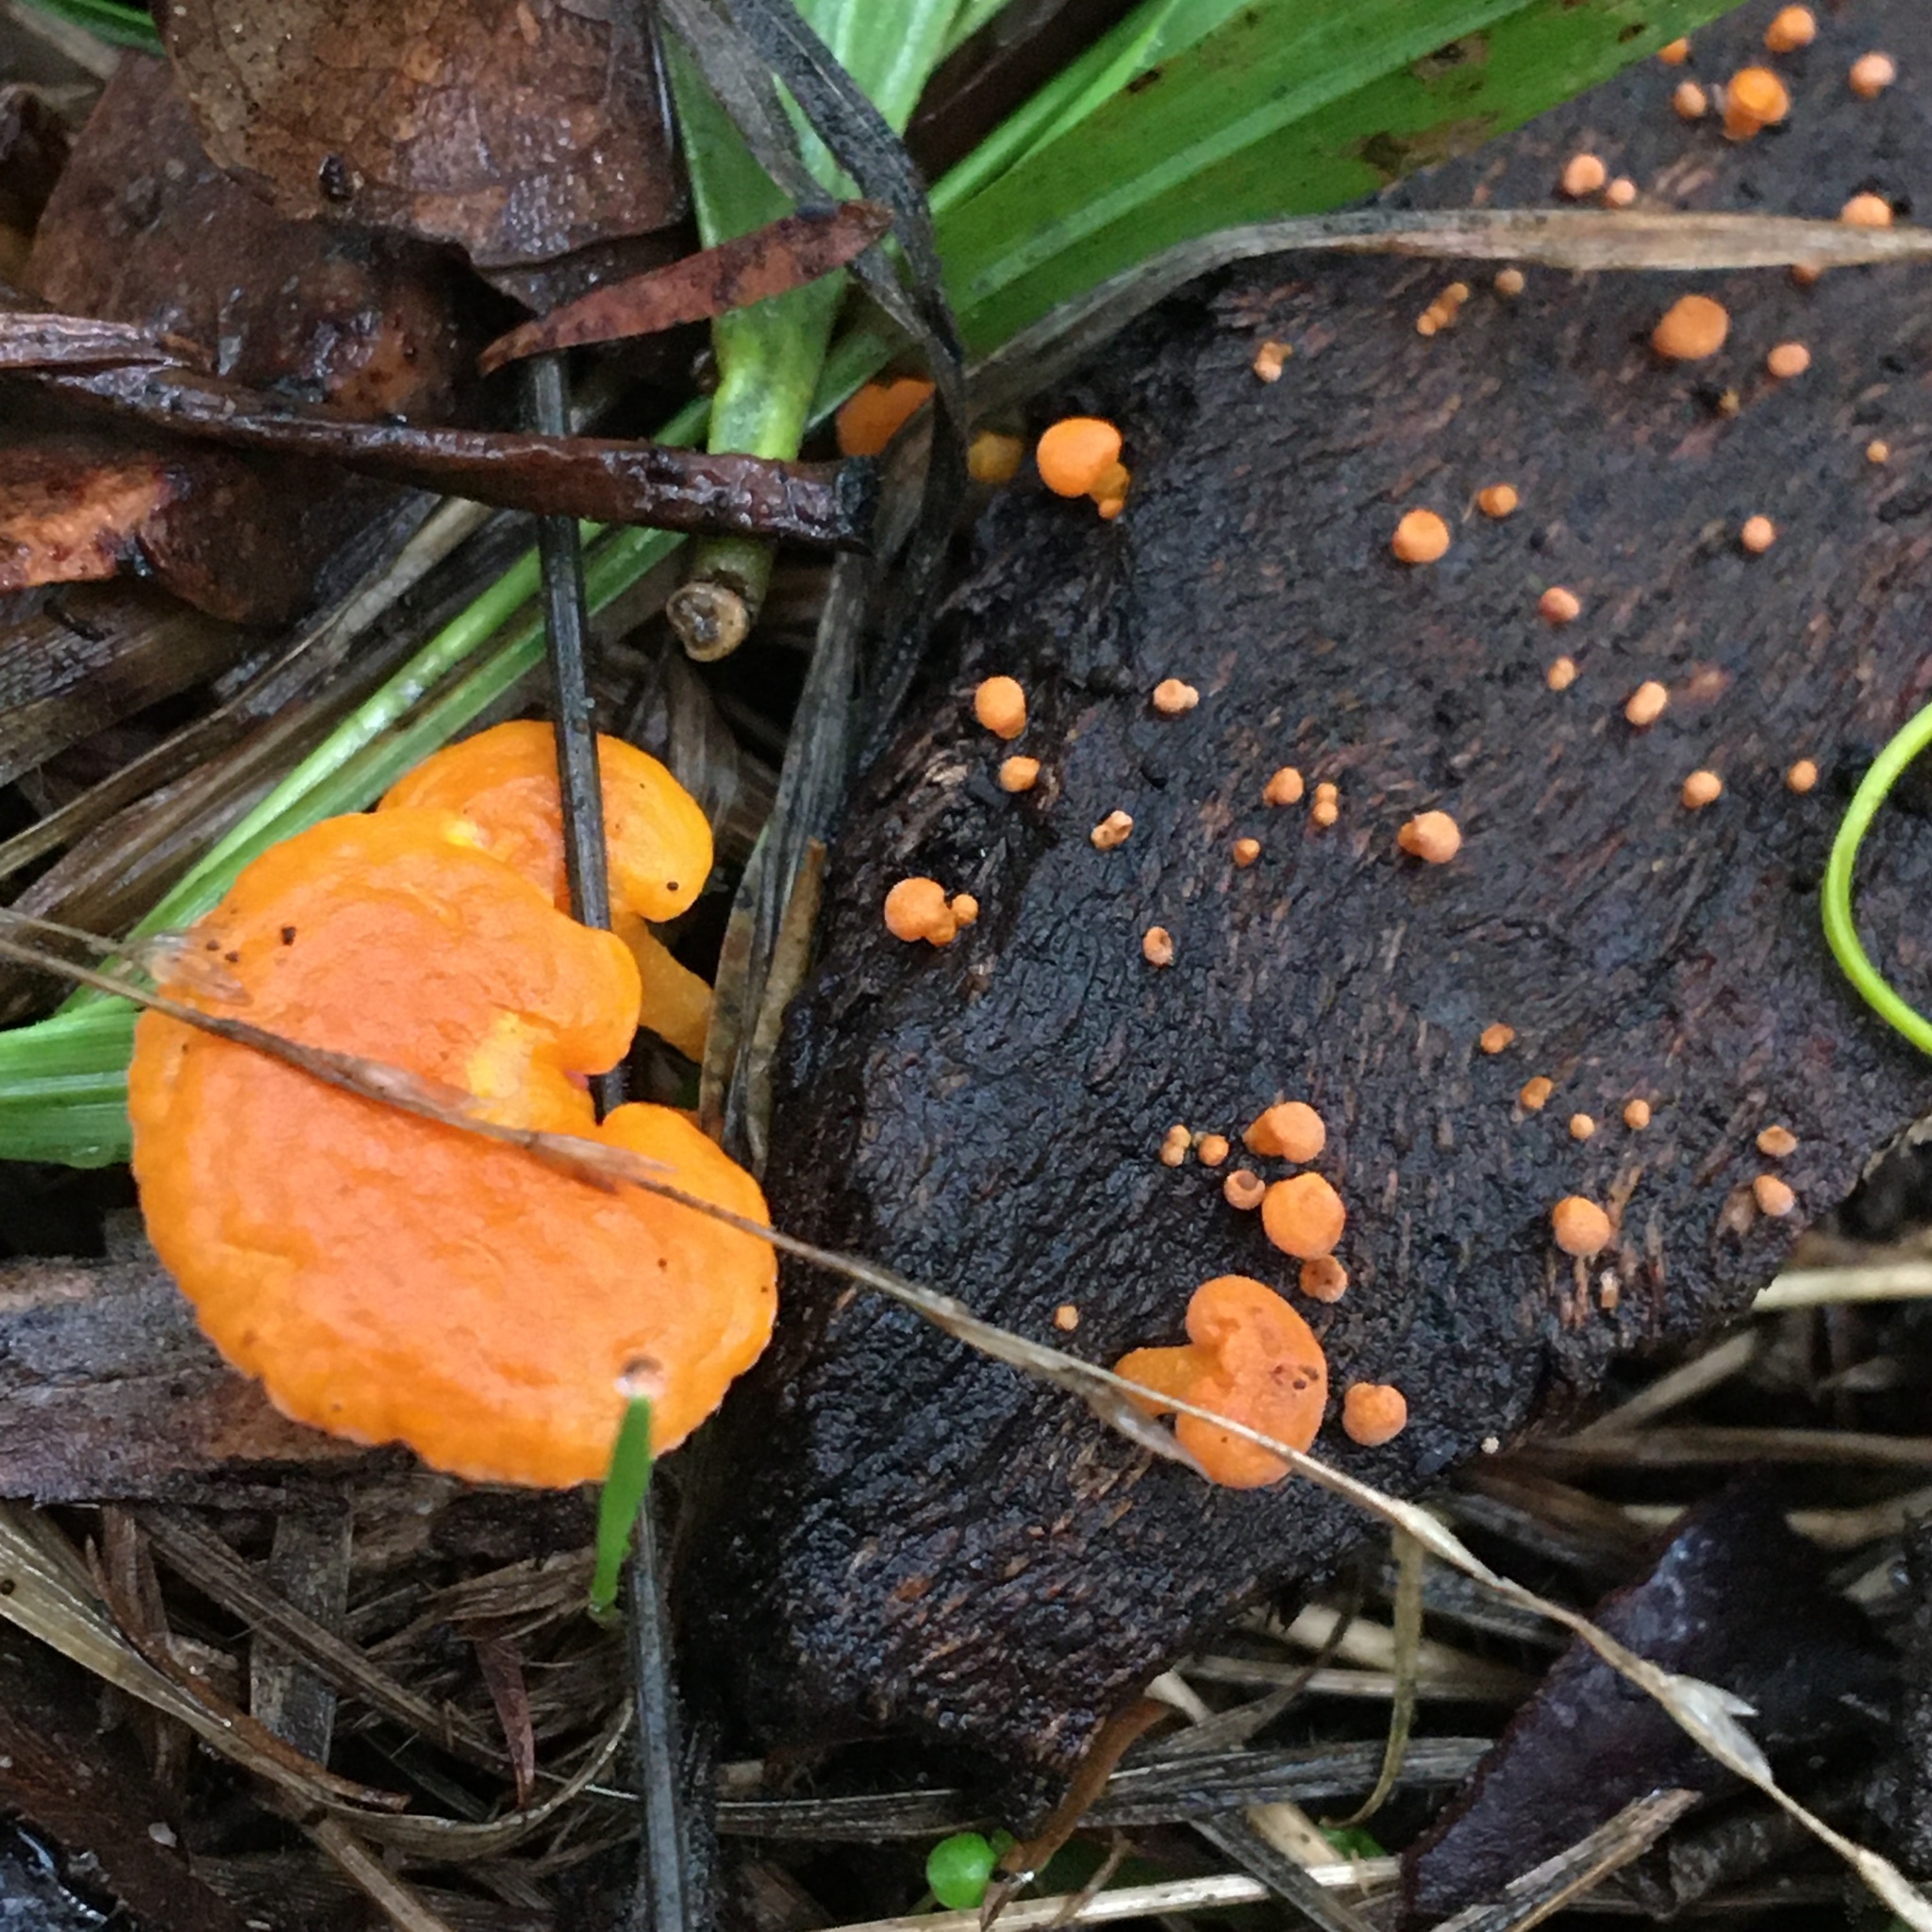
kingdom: Fungi
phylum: Basidiomycota
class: Agaricomycetes
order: Agaricales
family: Mycenaceae
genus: Favolaschia
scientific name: Favolaschia claudopus
